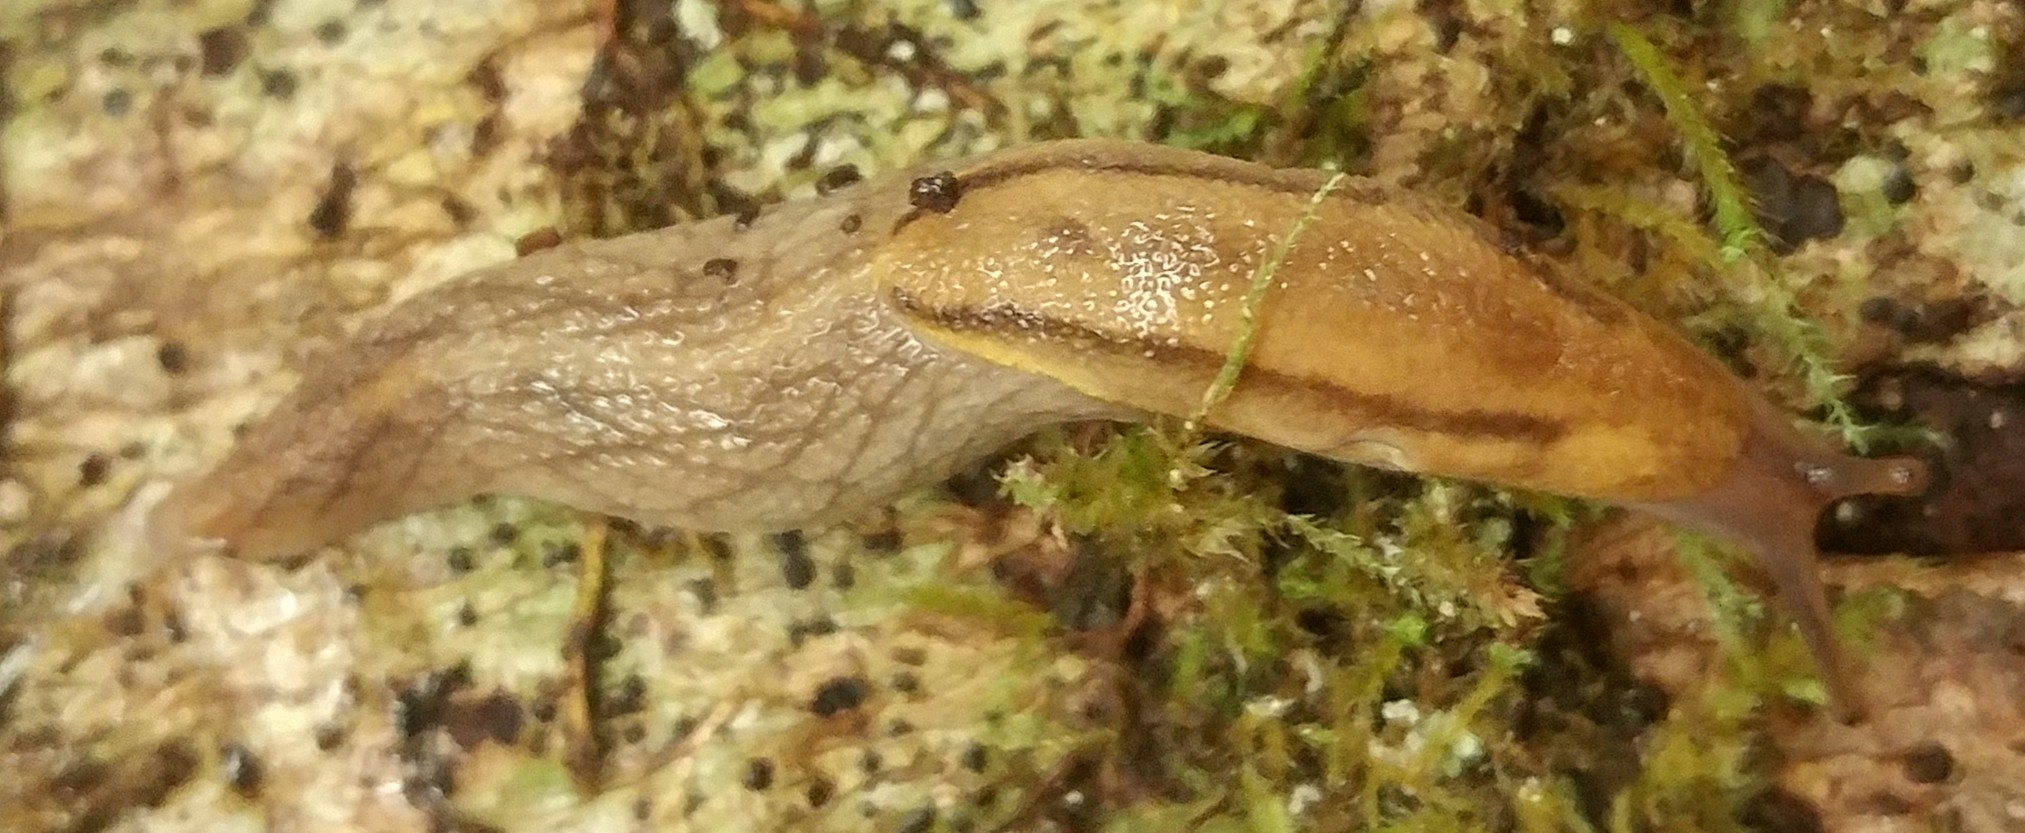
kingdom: Animalia
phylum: Mollusca
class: Gastropoda
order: Stylommatophora
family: Ariolimacidae
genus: Prophysaon
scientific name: Prophysaon foliolatum
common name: Yellow-bordered taildropper
